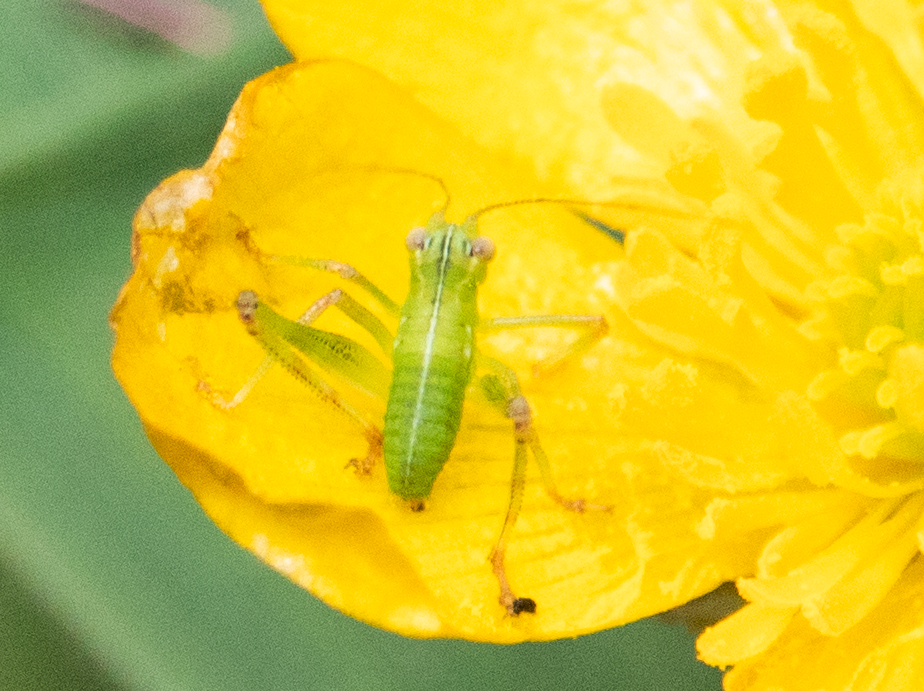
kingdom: Animalia
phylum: Arthropoda
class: Insecta
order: Orthoptera
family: Tettigoniidae
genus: Caedicia
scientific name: Caedicia simplex
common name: Common garden katydid
